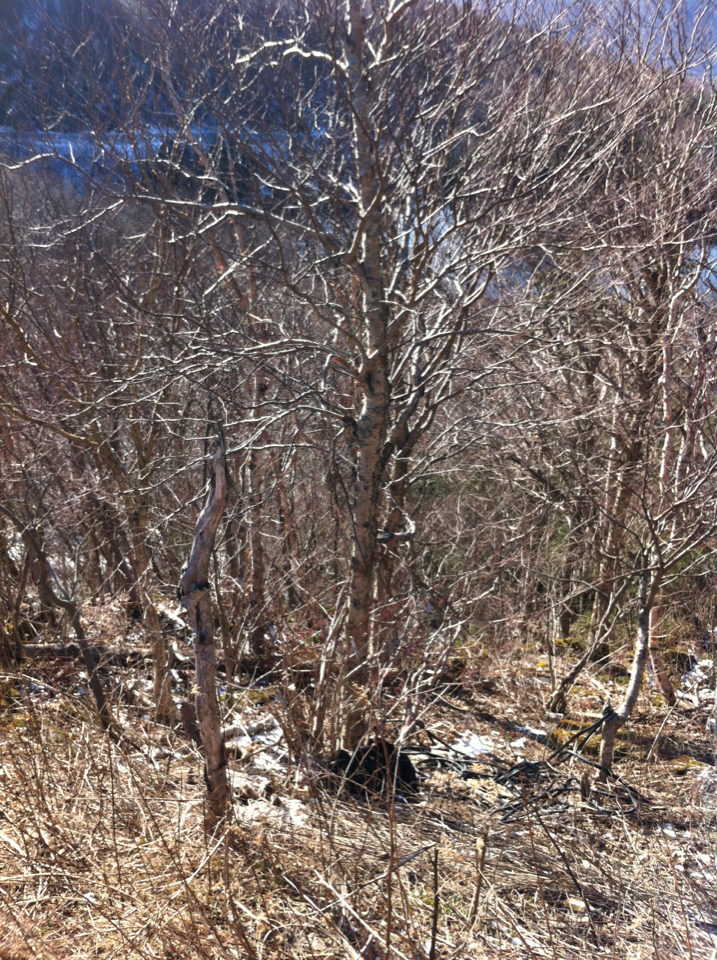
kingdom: Plantae
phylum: Tracheophyta
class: Magnoliopsida
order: Fagales
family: Betulaceae
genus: Betula
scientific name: Betula alleghaniensis
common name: Yellow birch
